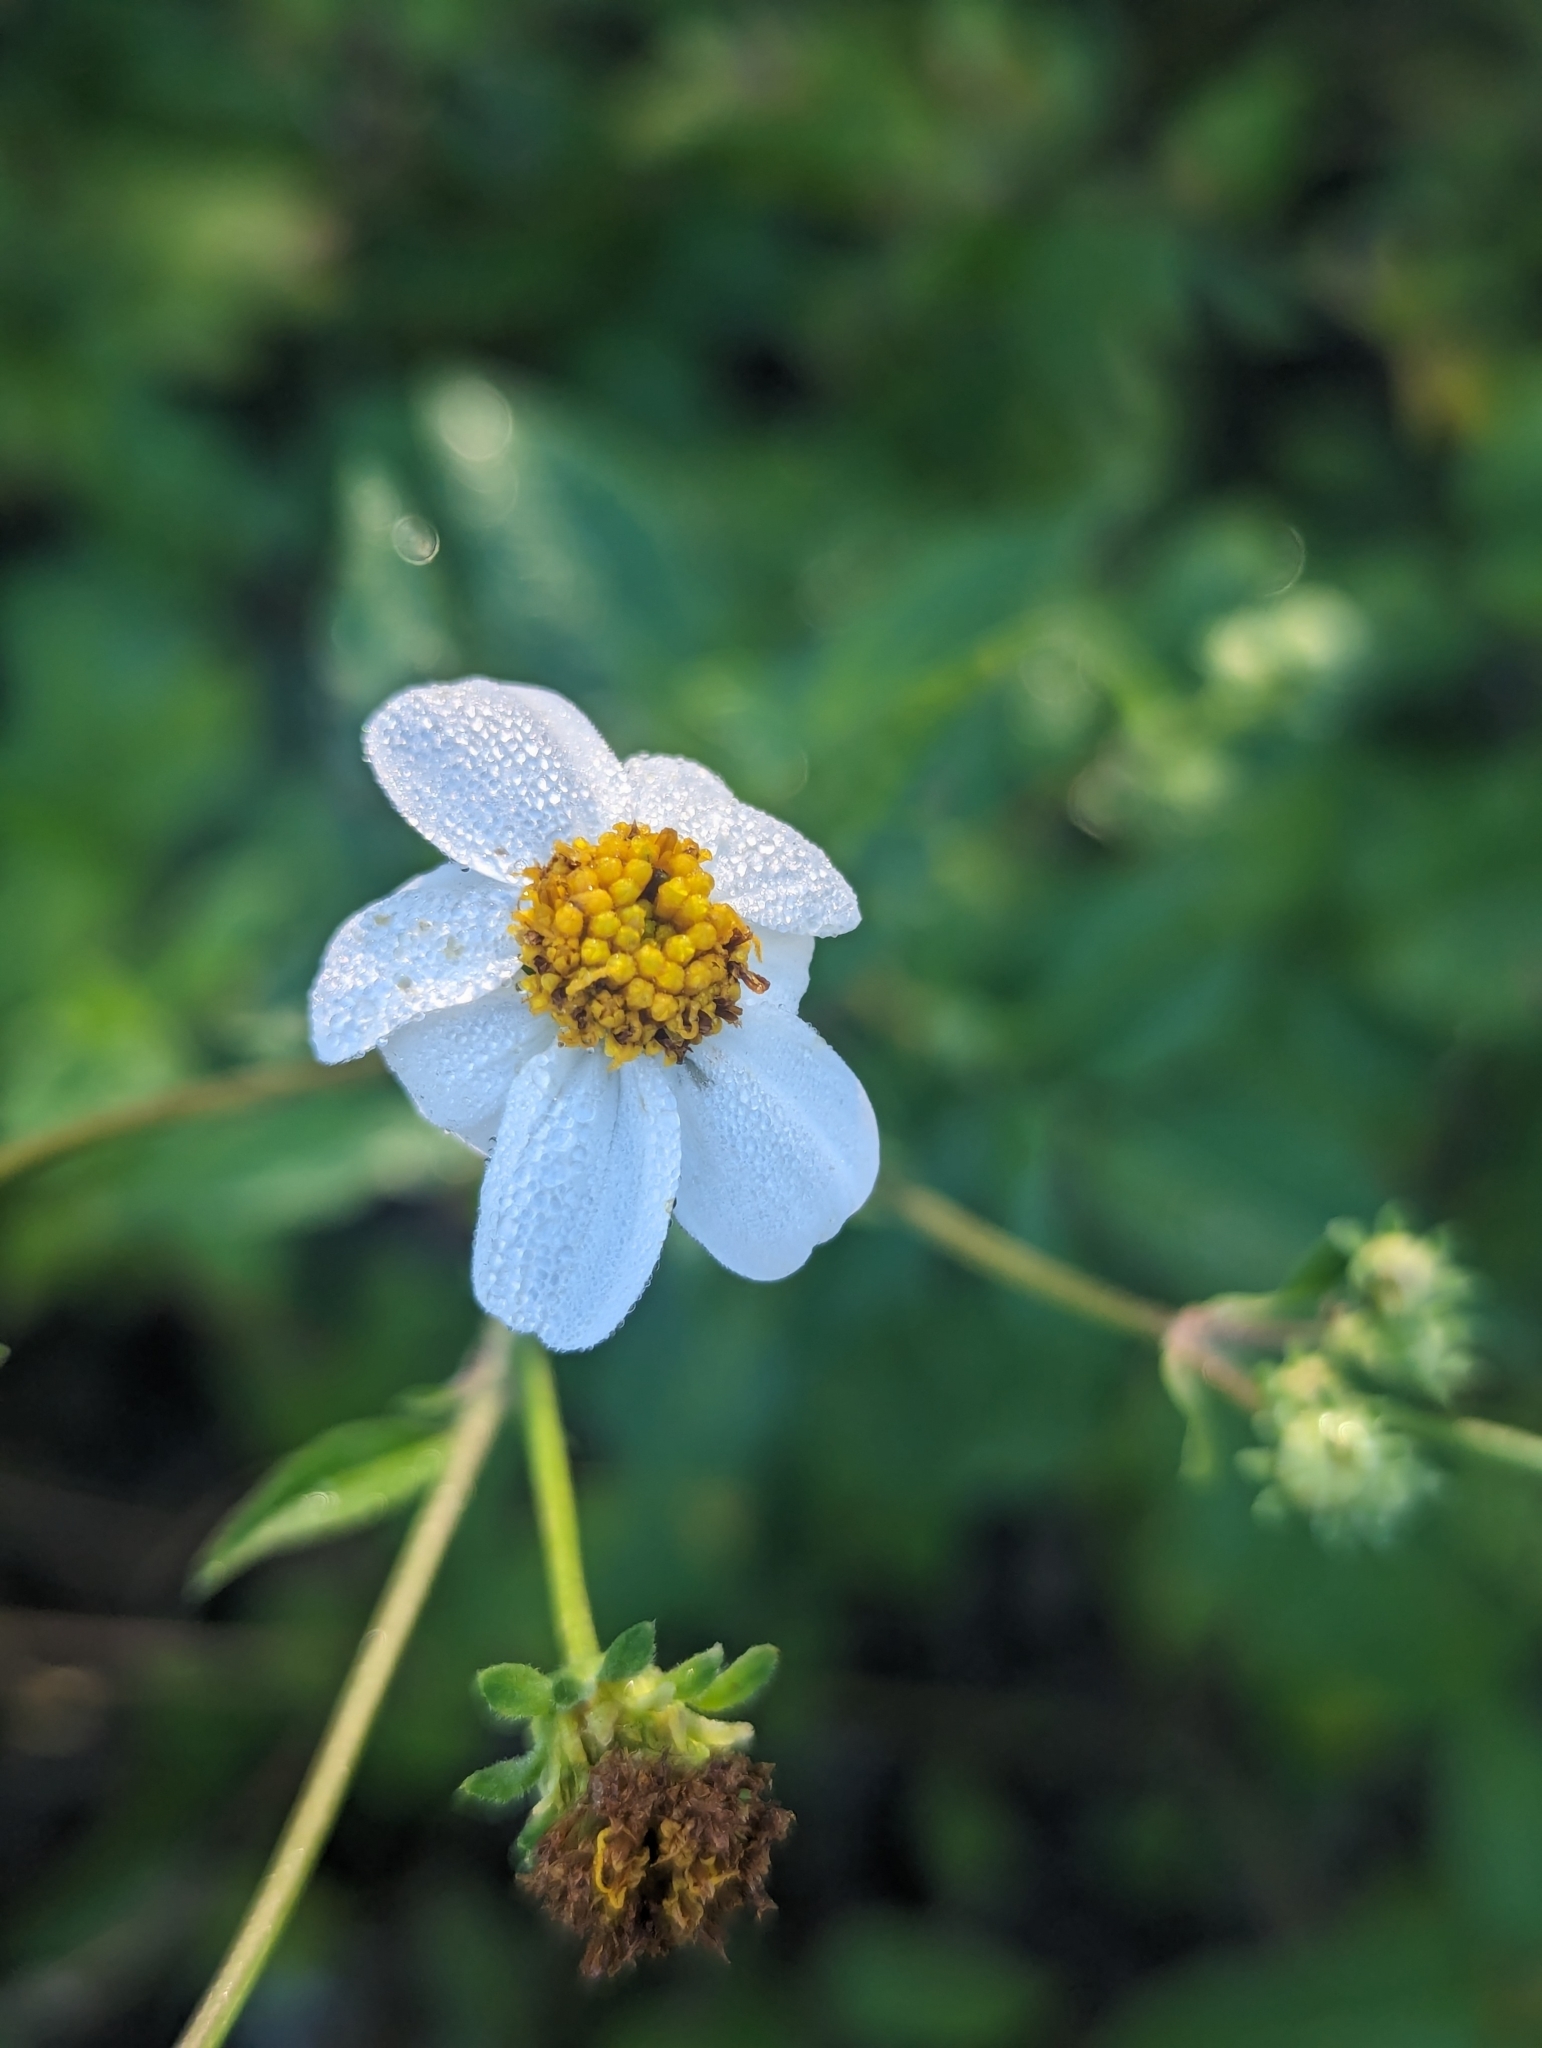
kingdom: Plantae
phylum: Tracheophyta
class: Magnoliopsida
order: Asterales
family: Asteraceae
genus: Bidens
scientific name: Bidens alba
